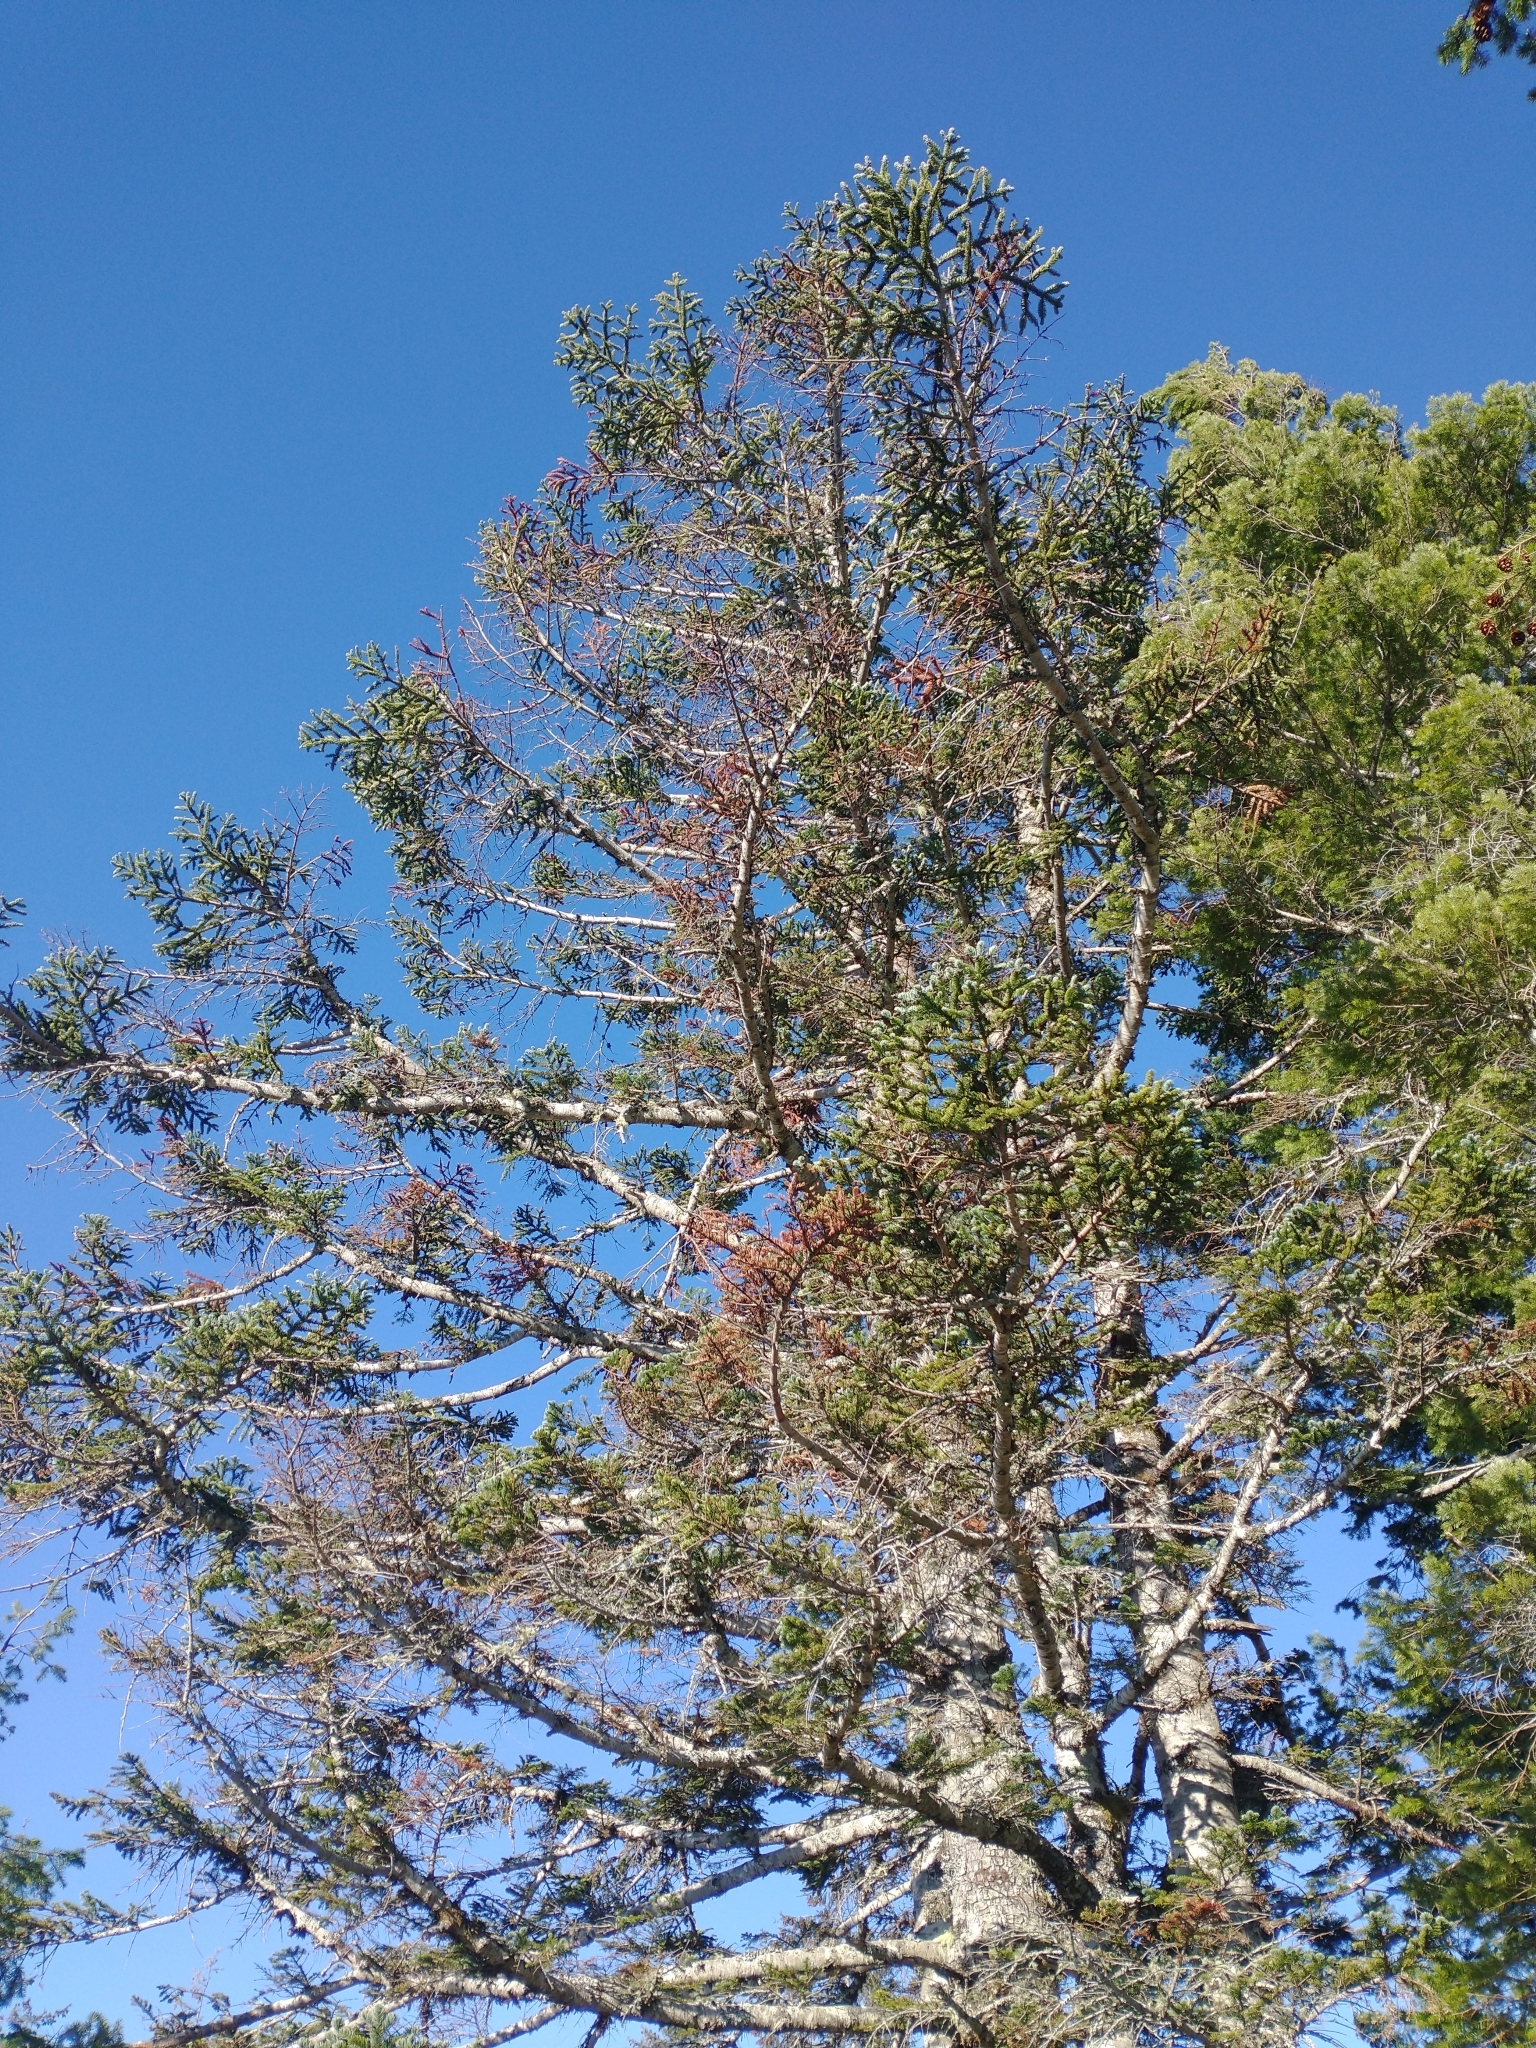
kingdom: Plantae
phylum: Tracheophyta
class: Pinopsida
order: Pinales
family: Pinaceae
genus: Abies
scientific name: Abies procera
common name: Noble fir
